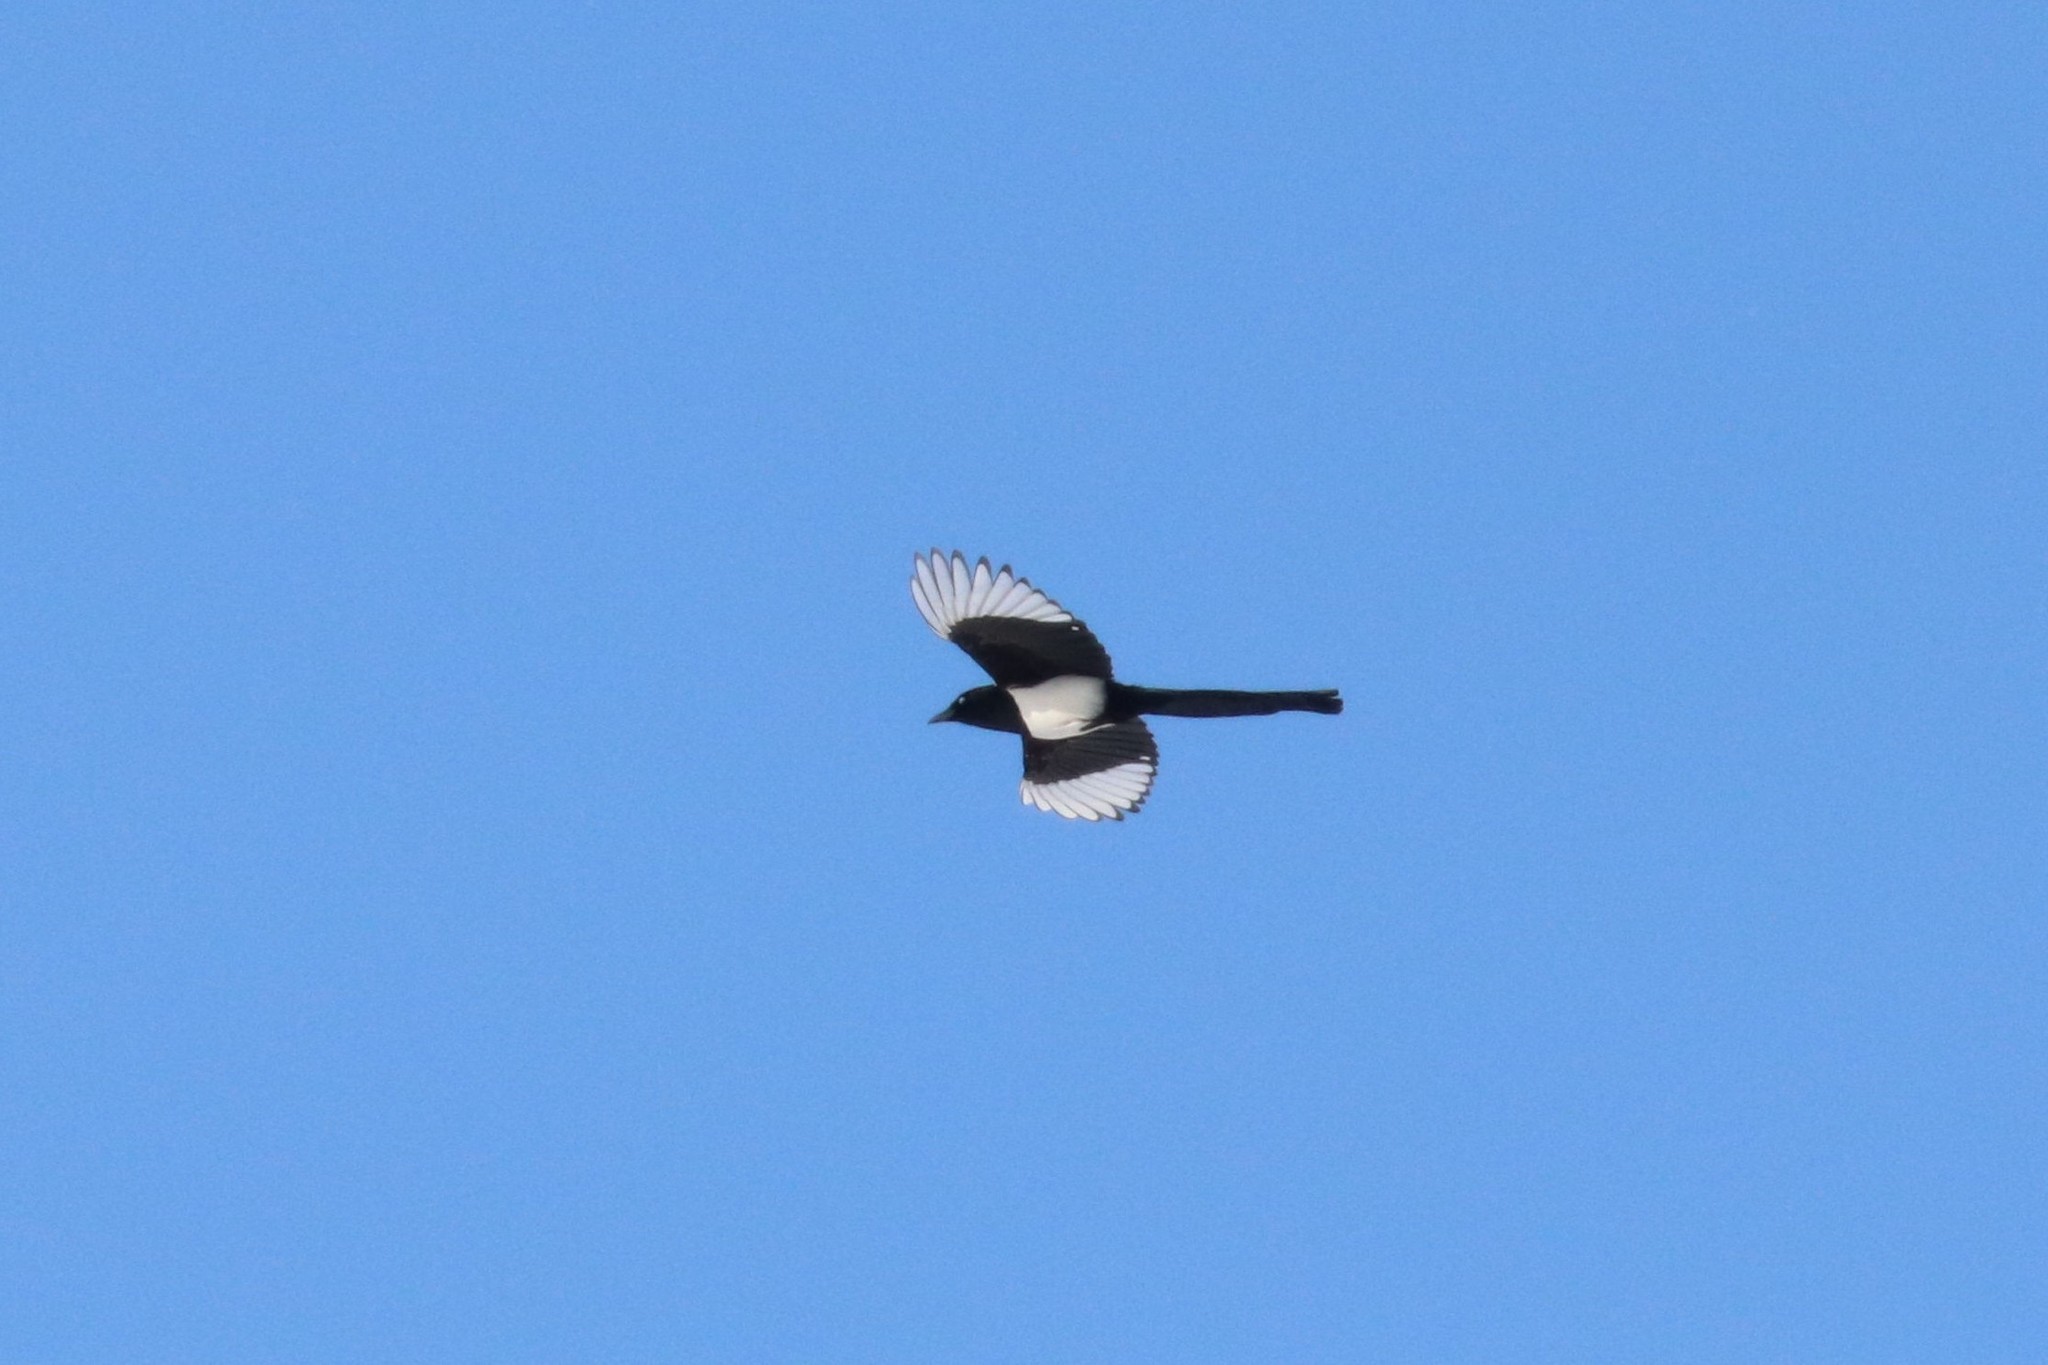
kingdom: Animalia
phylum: Chordata
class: Aves
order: Passeriformes
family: Corvidae
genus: Pica
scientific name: Pica pica
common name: Eurasian magpie
